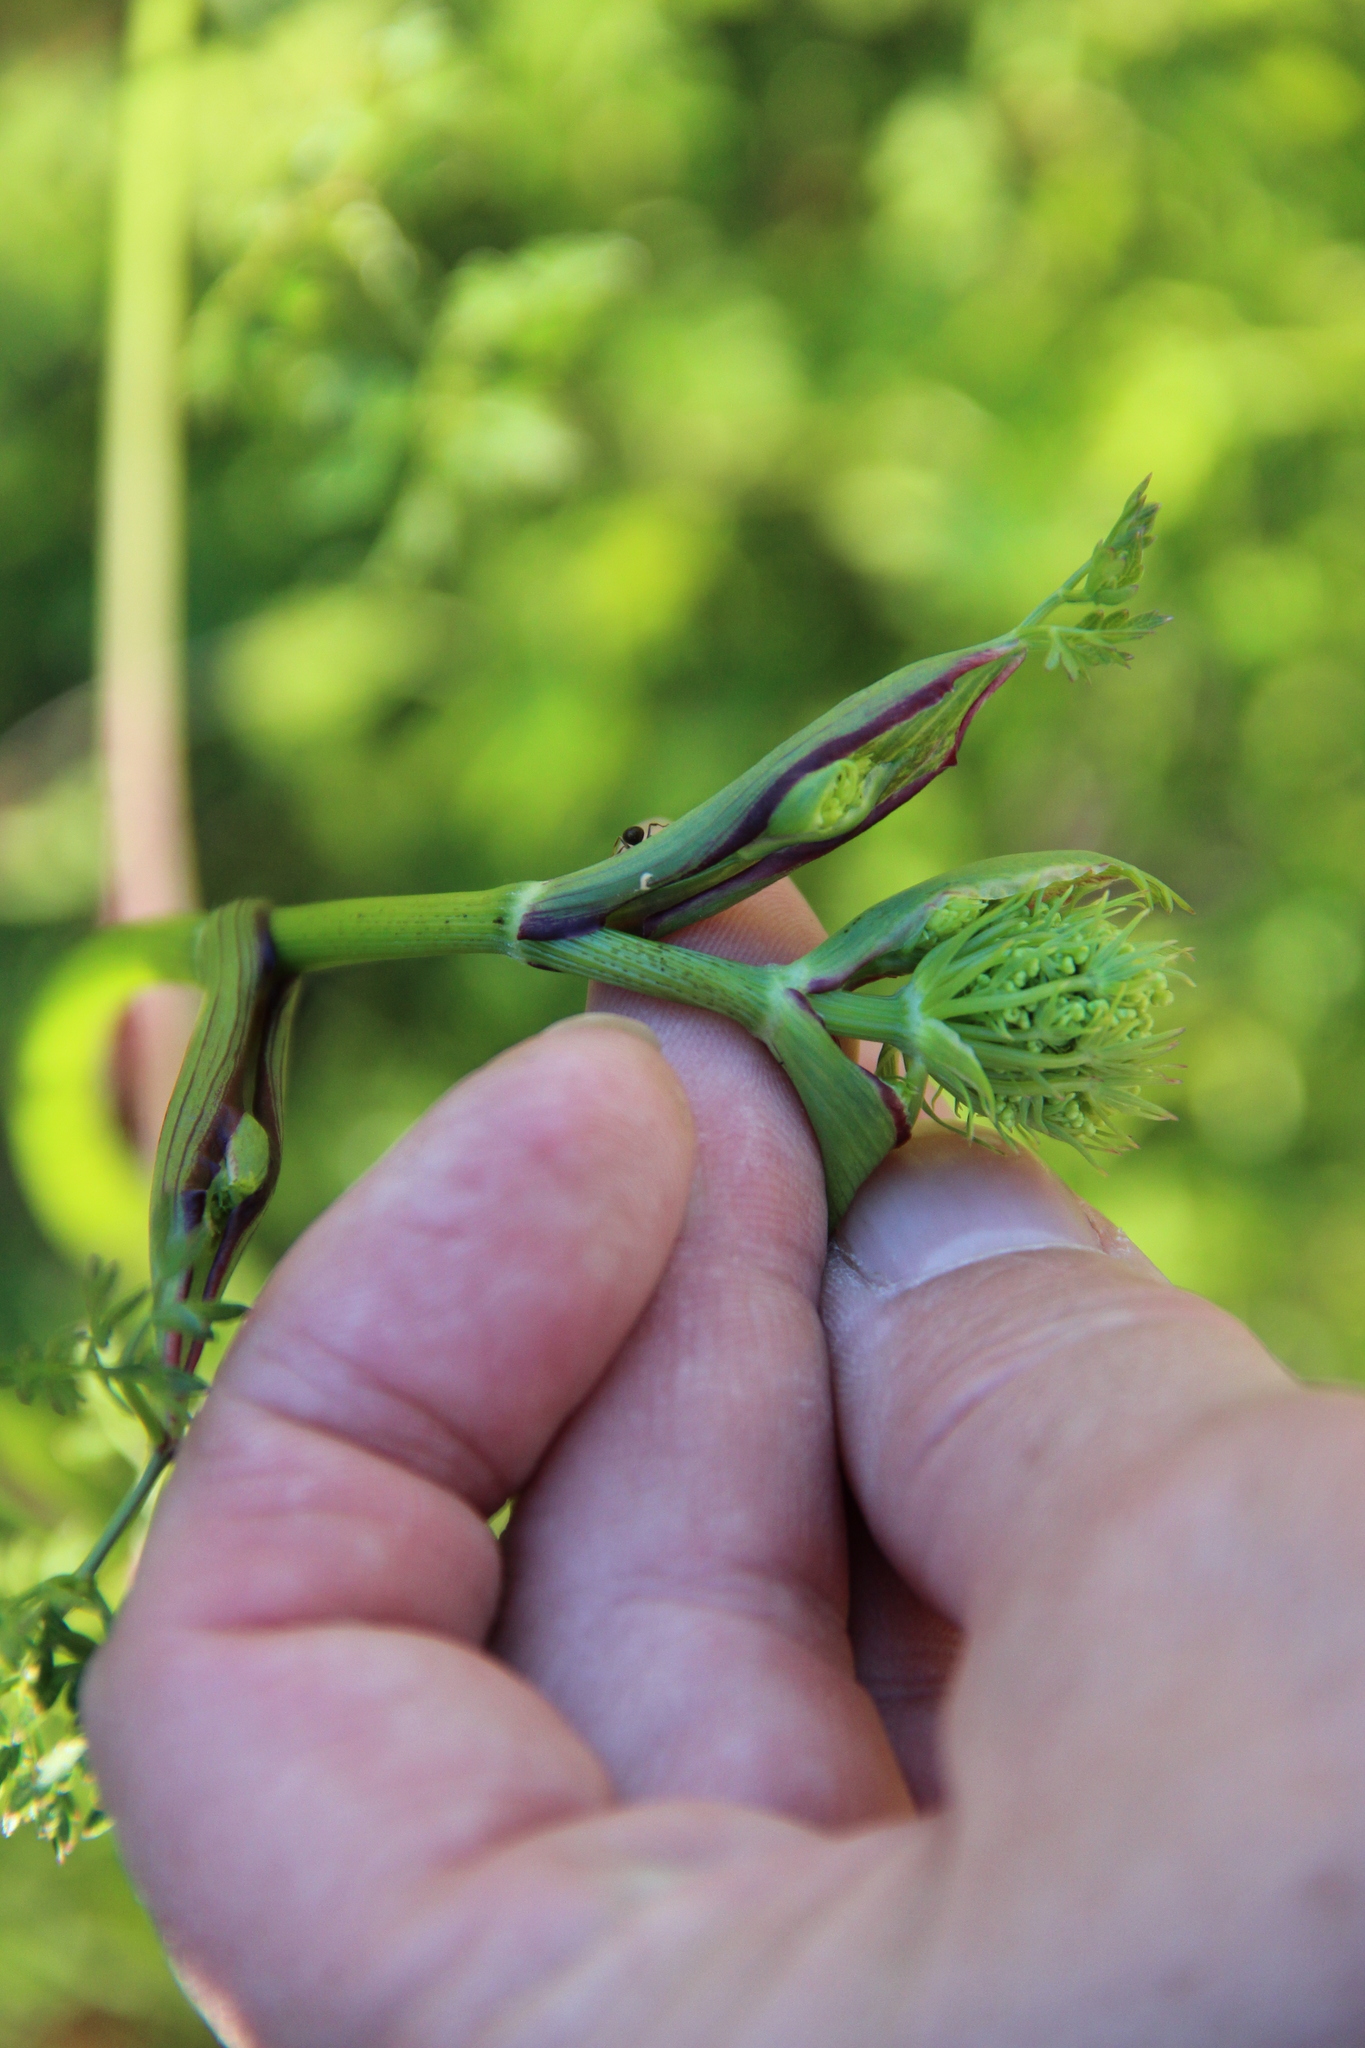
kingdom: Plantae
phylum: Tracheophyta
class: Magnoliopsida
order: Apiales
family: Apiaceae
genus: Oreoselinum
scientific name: Oreoselinum nigrum
